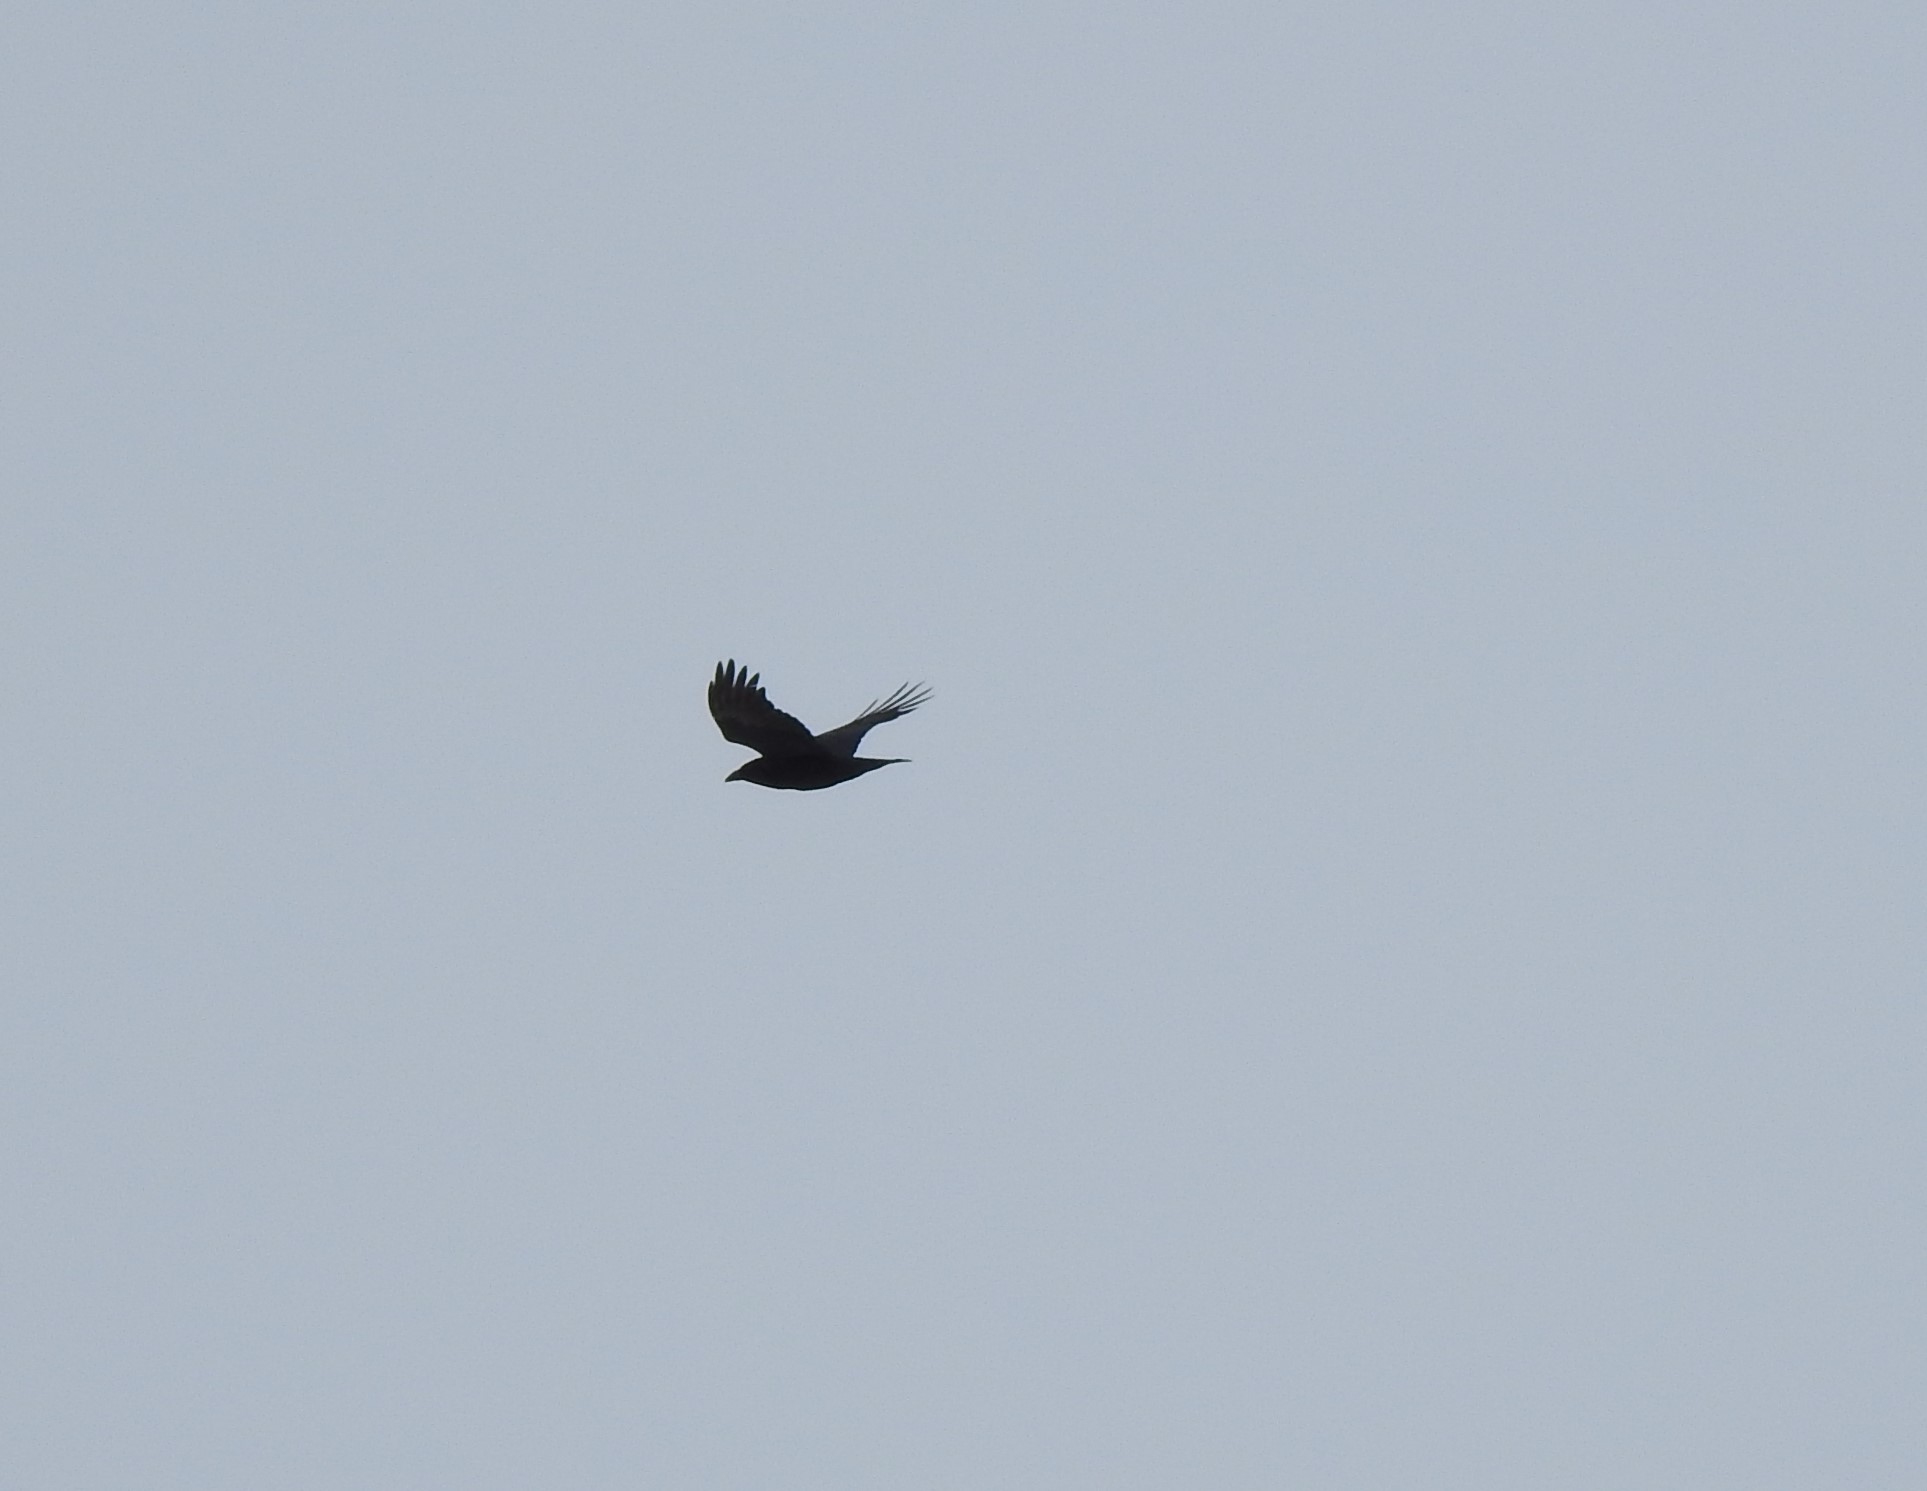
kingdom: Animalia
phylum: Chordata
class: Aves
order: Passeriformes
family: Corvidae
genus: Corvus
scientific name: Corvus corax
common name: Common raven
